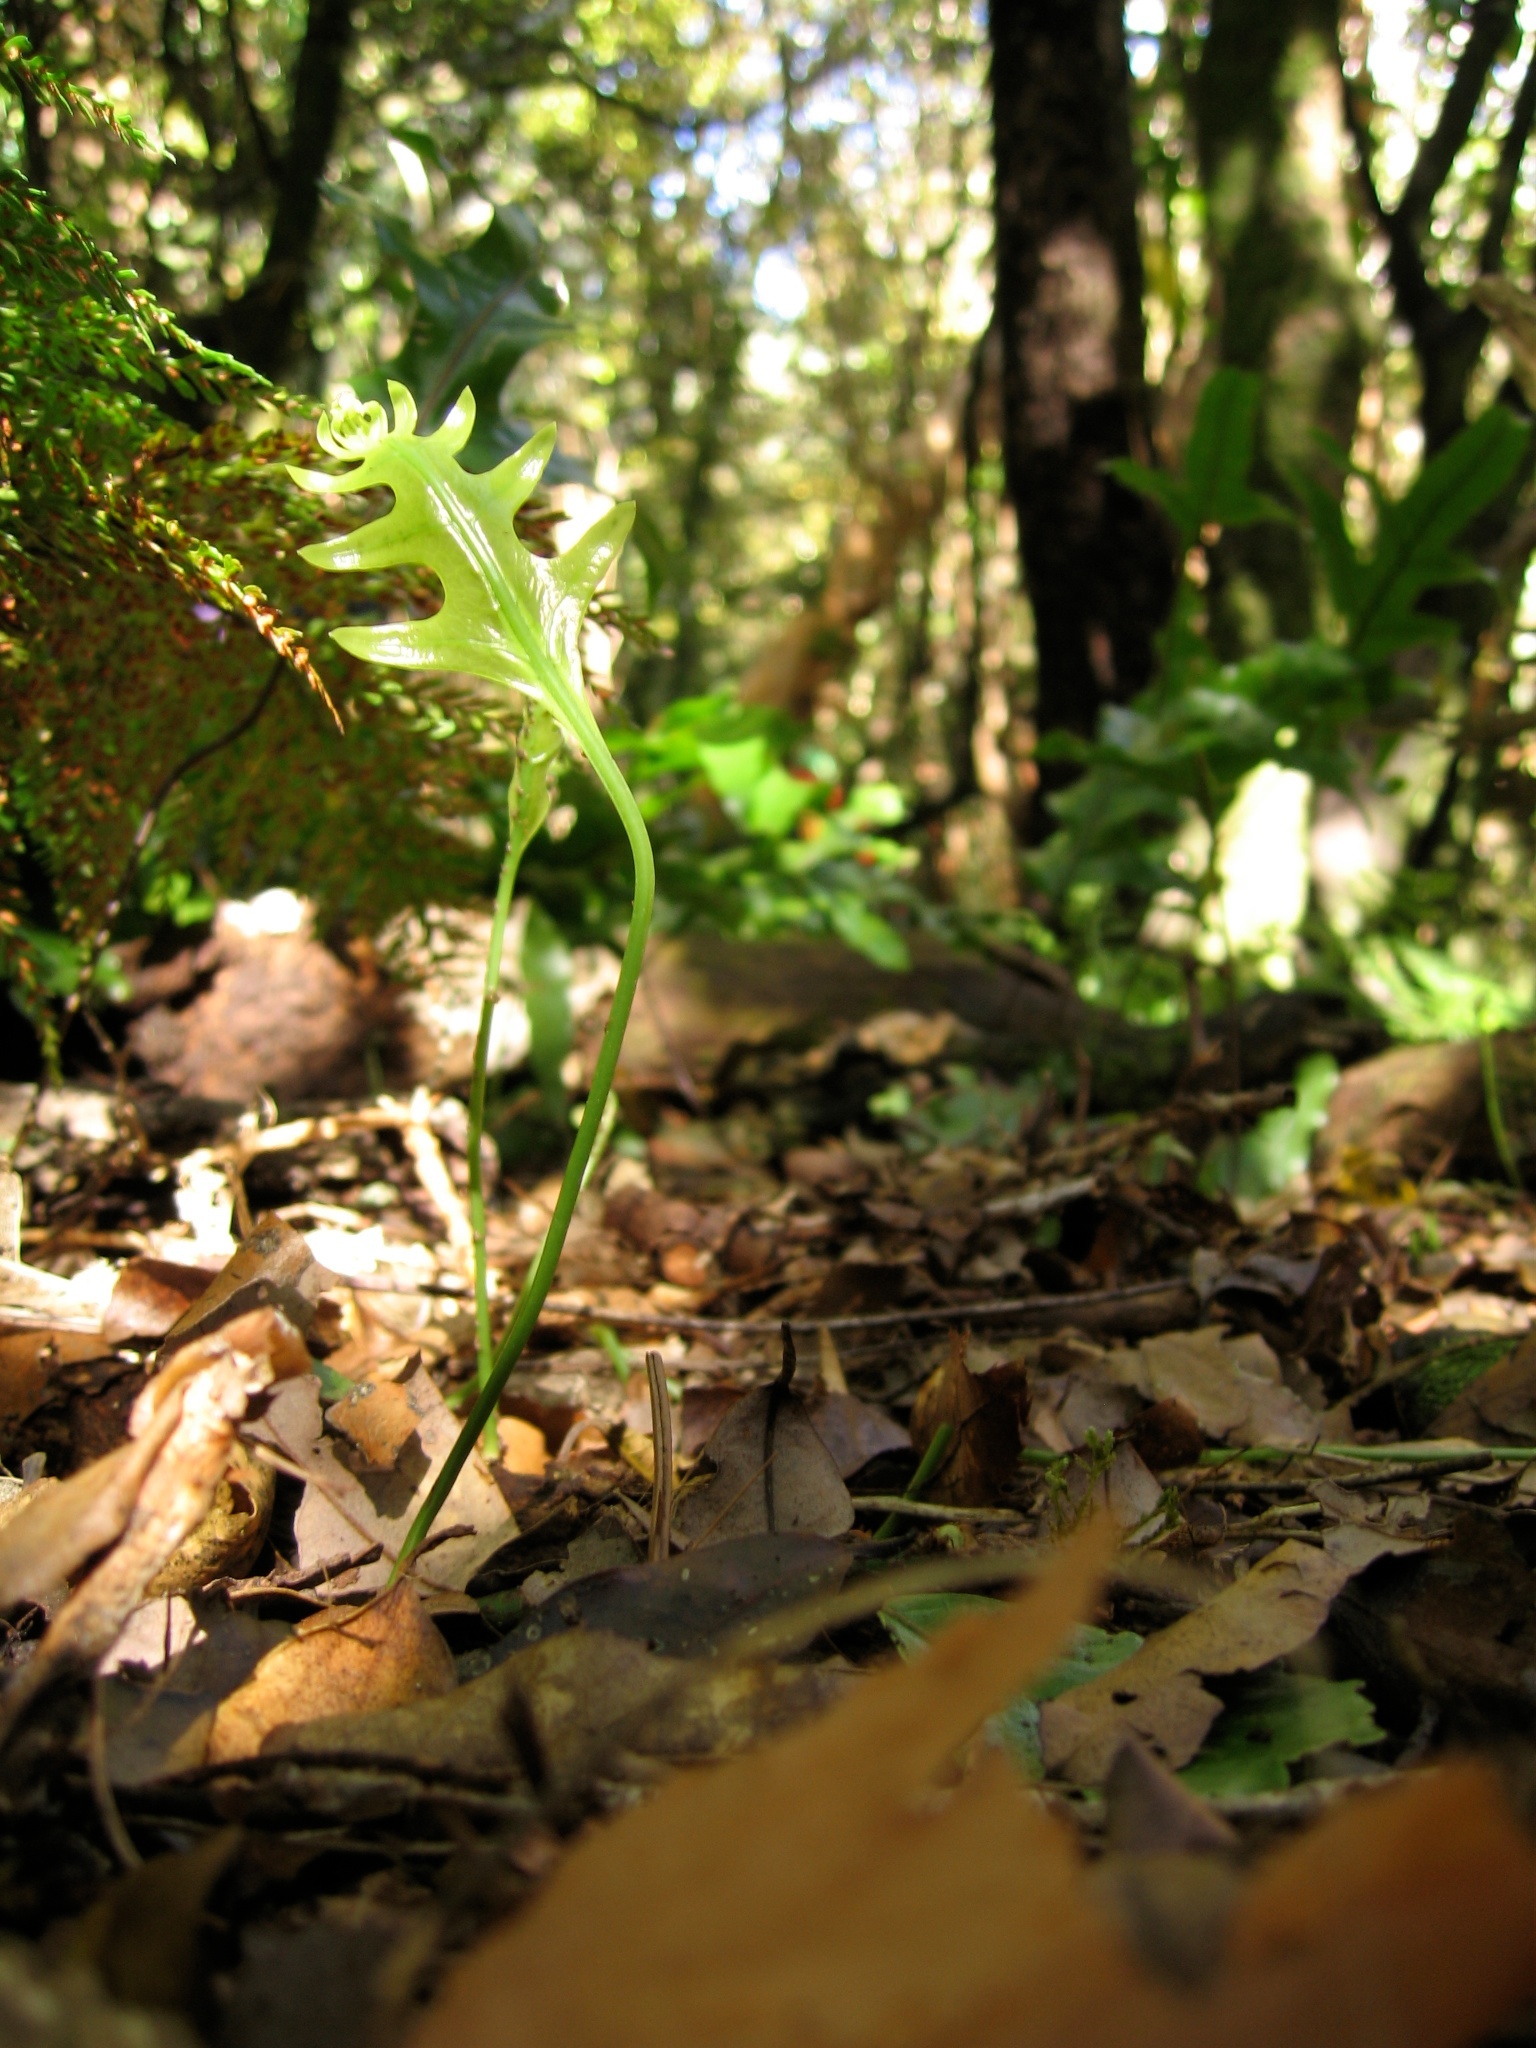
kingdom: Plantae
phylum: Tracheophyta
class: Polypodiopsida
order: Polypodiales
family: Polypodiaceae
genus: Lecanopteris
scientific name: Lecanopteris pustulata
